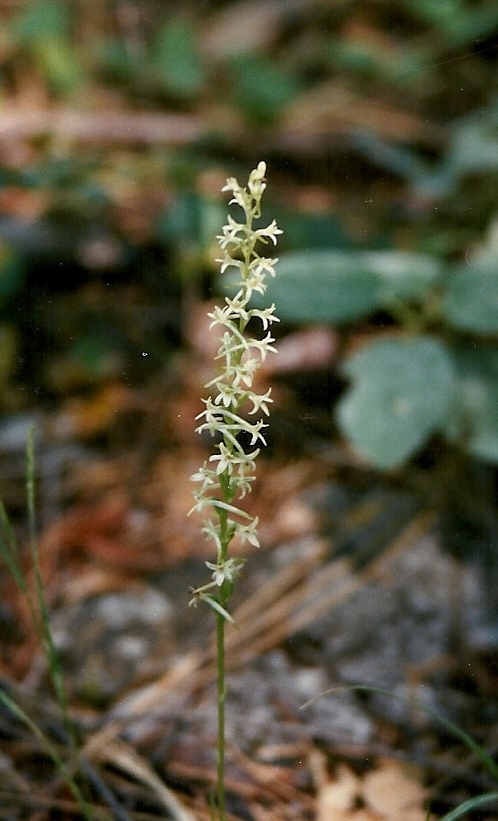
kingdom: Plantae
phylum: Tracheophyta
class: Liliopsida
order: Asparagales
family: Orchidaceae
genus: Platanthera
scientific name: Platanthera transversa
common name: Royal rein orchid
